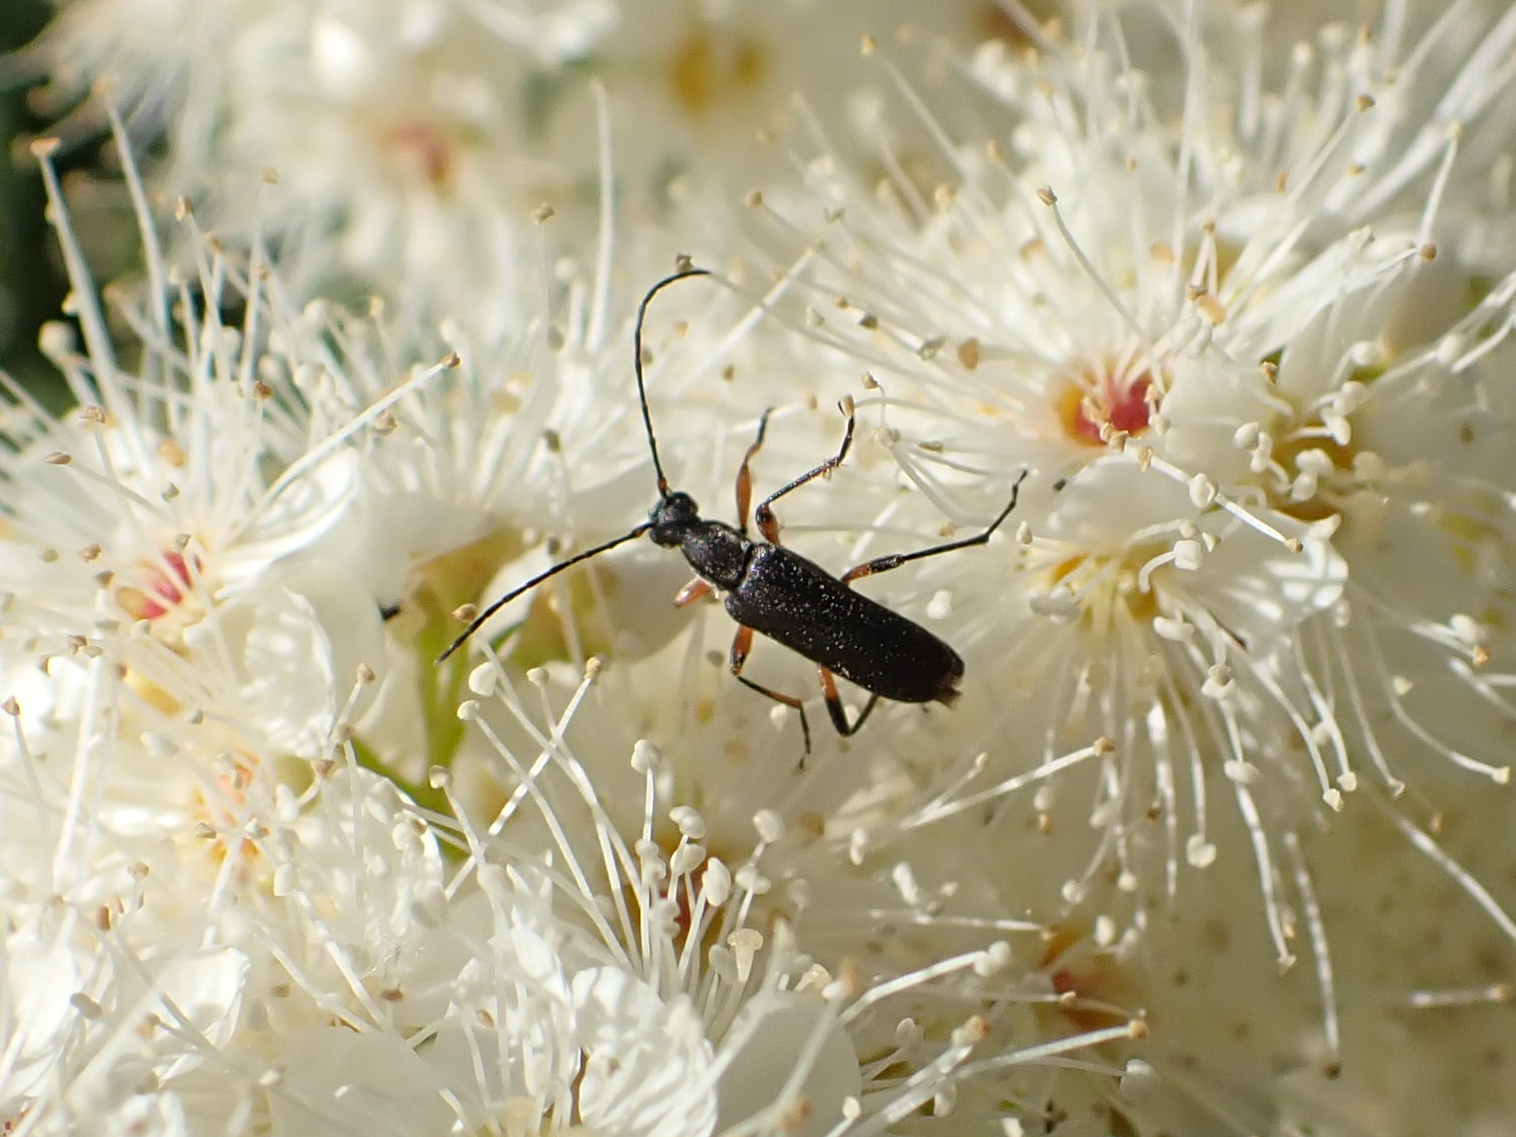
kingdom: Animalia
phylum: Arthropoda
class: Insecta
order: Coleoptera
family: Cerambycidae
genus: Grammoptera
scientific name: Grammoptera subargentata
